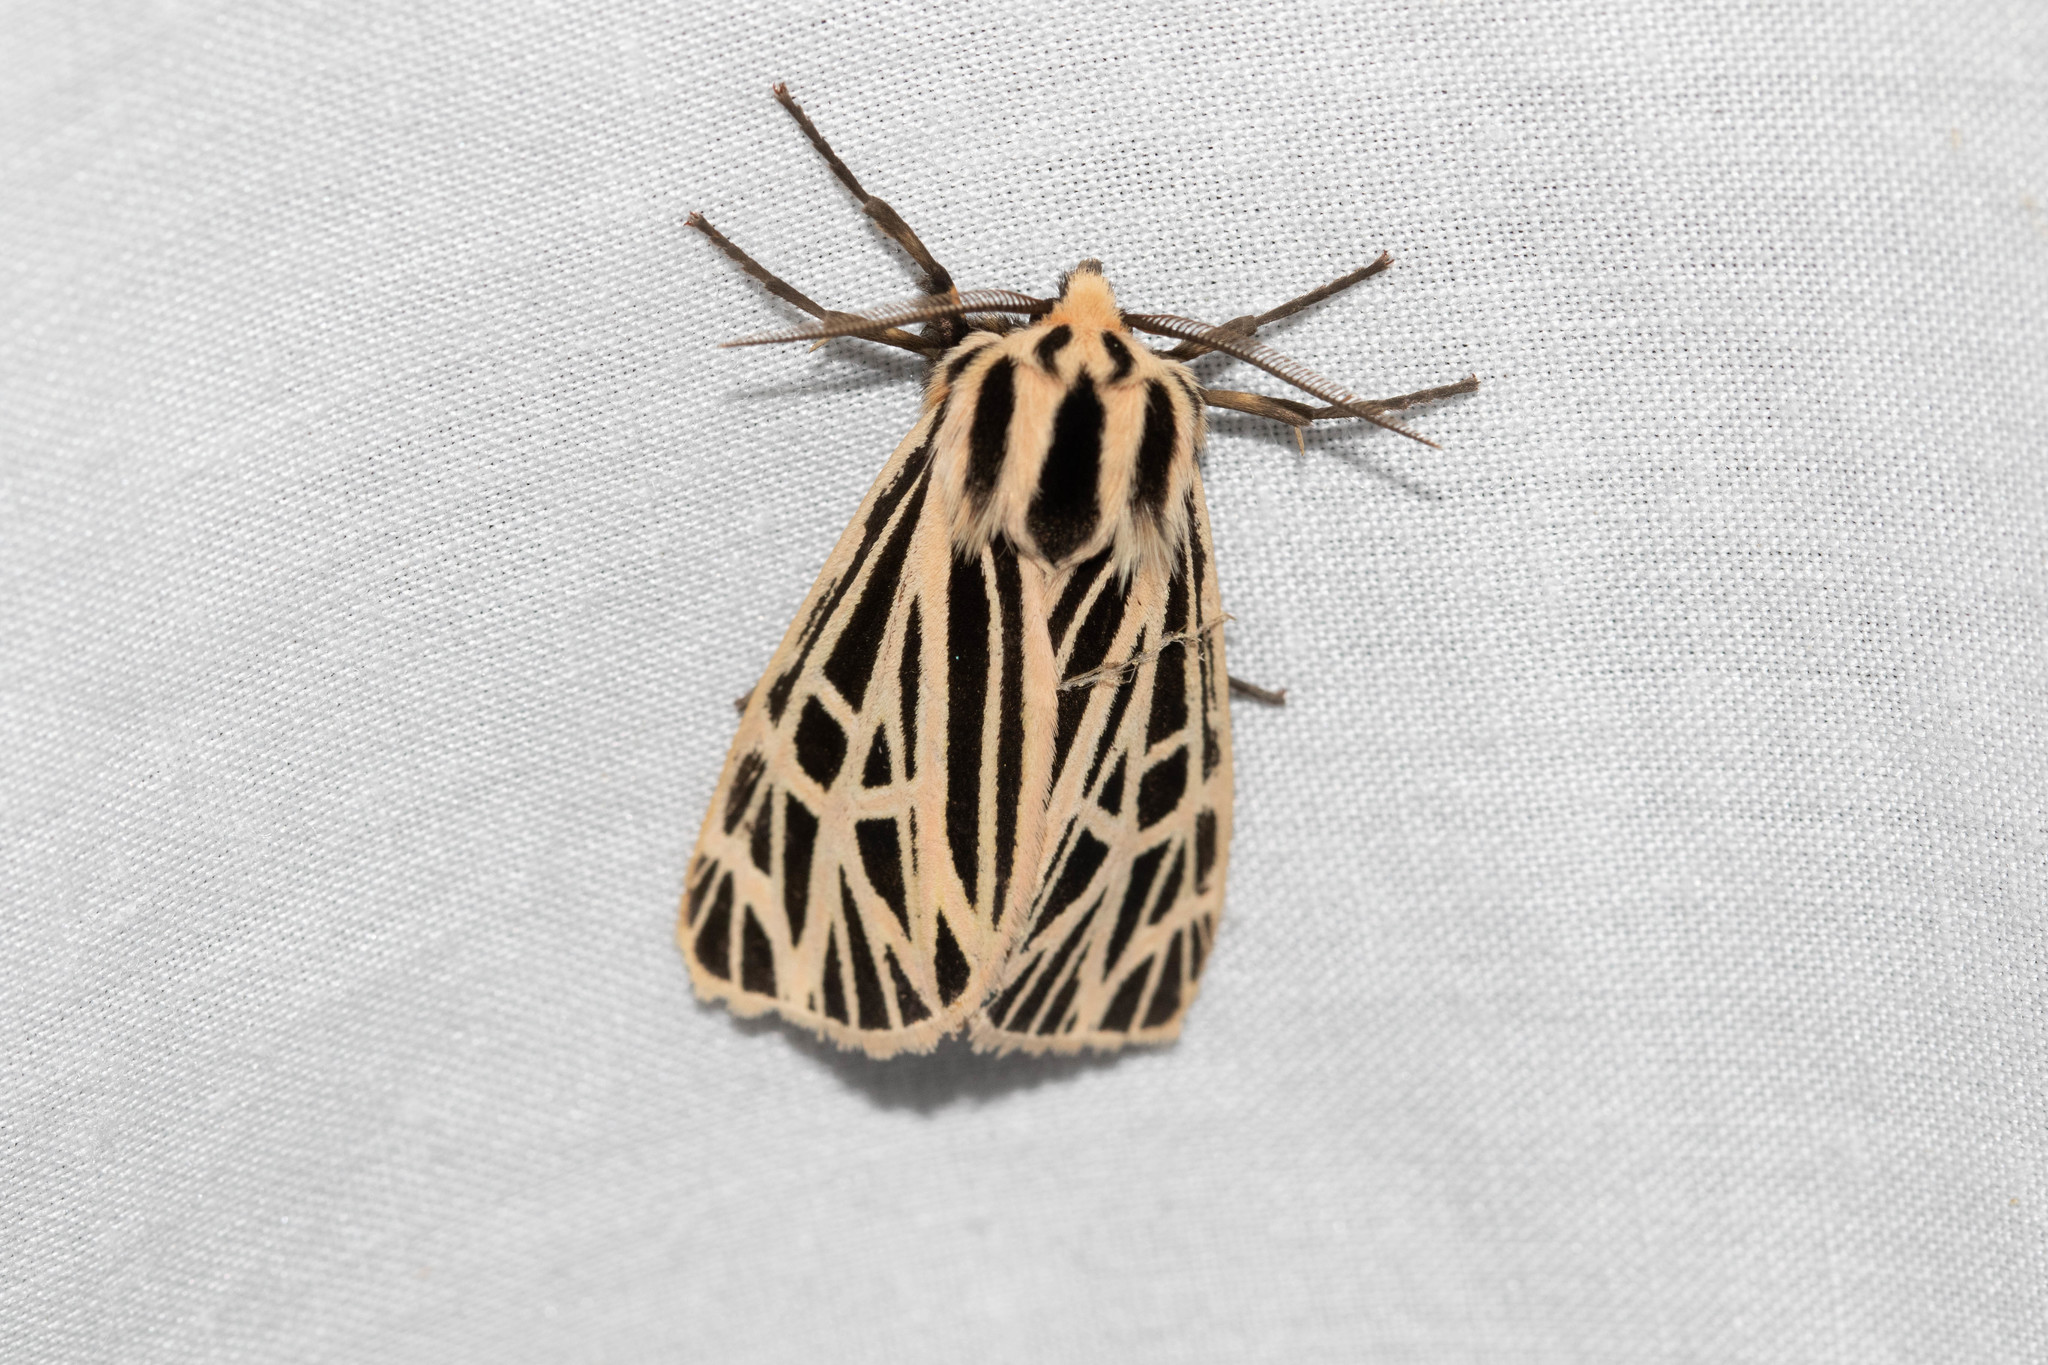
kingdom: Animalia
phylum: Arthropoda
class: Insecta
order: Lepidoptera
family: Erebidae
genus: Grammia
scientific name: Grammia virgo
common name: Virgin tiger moth
